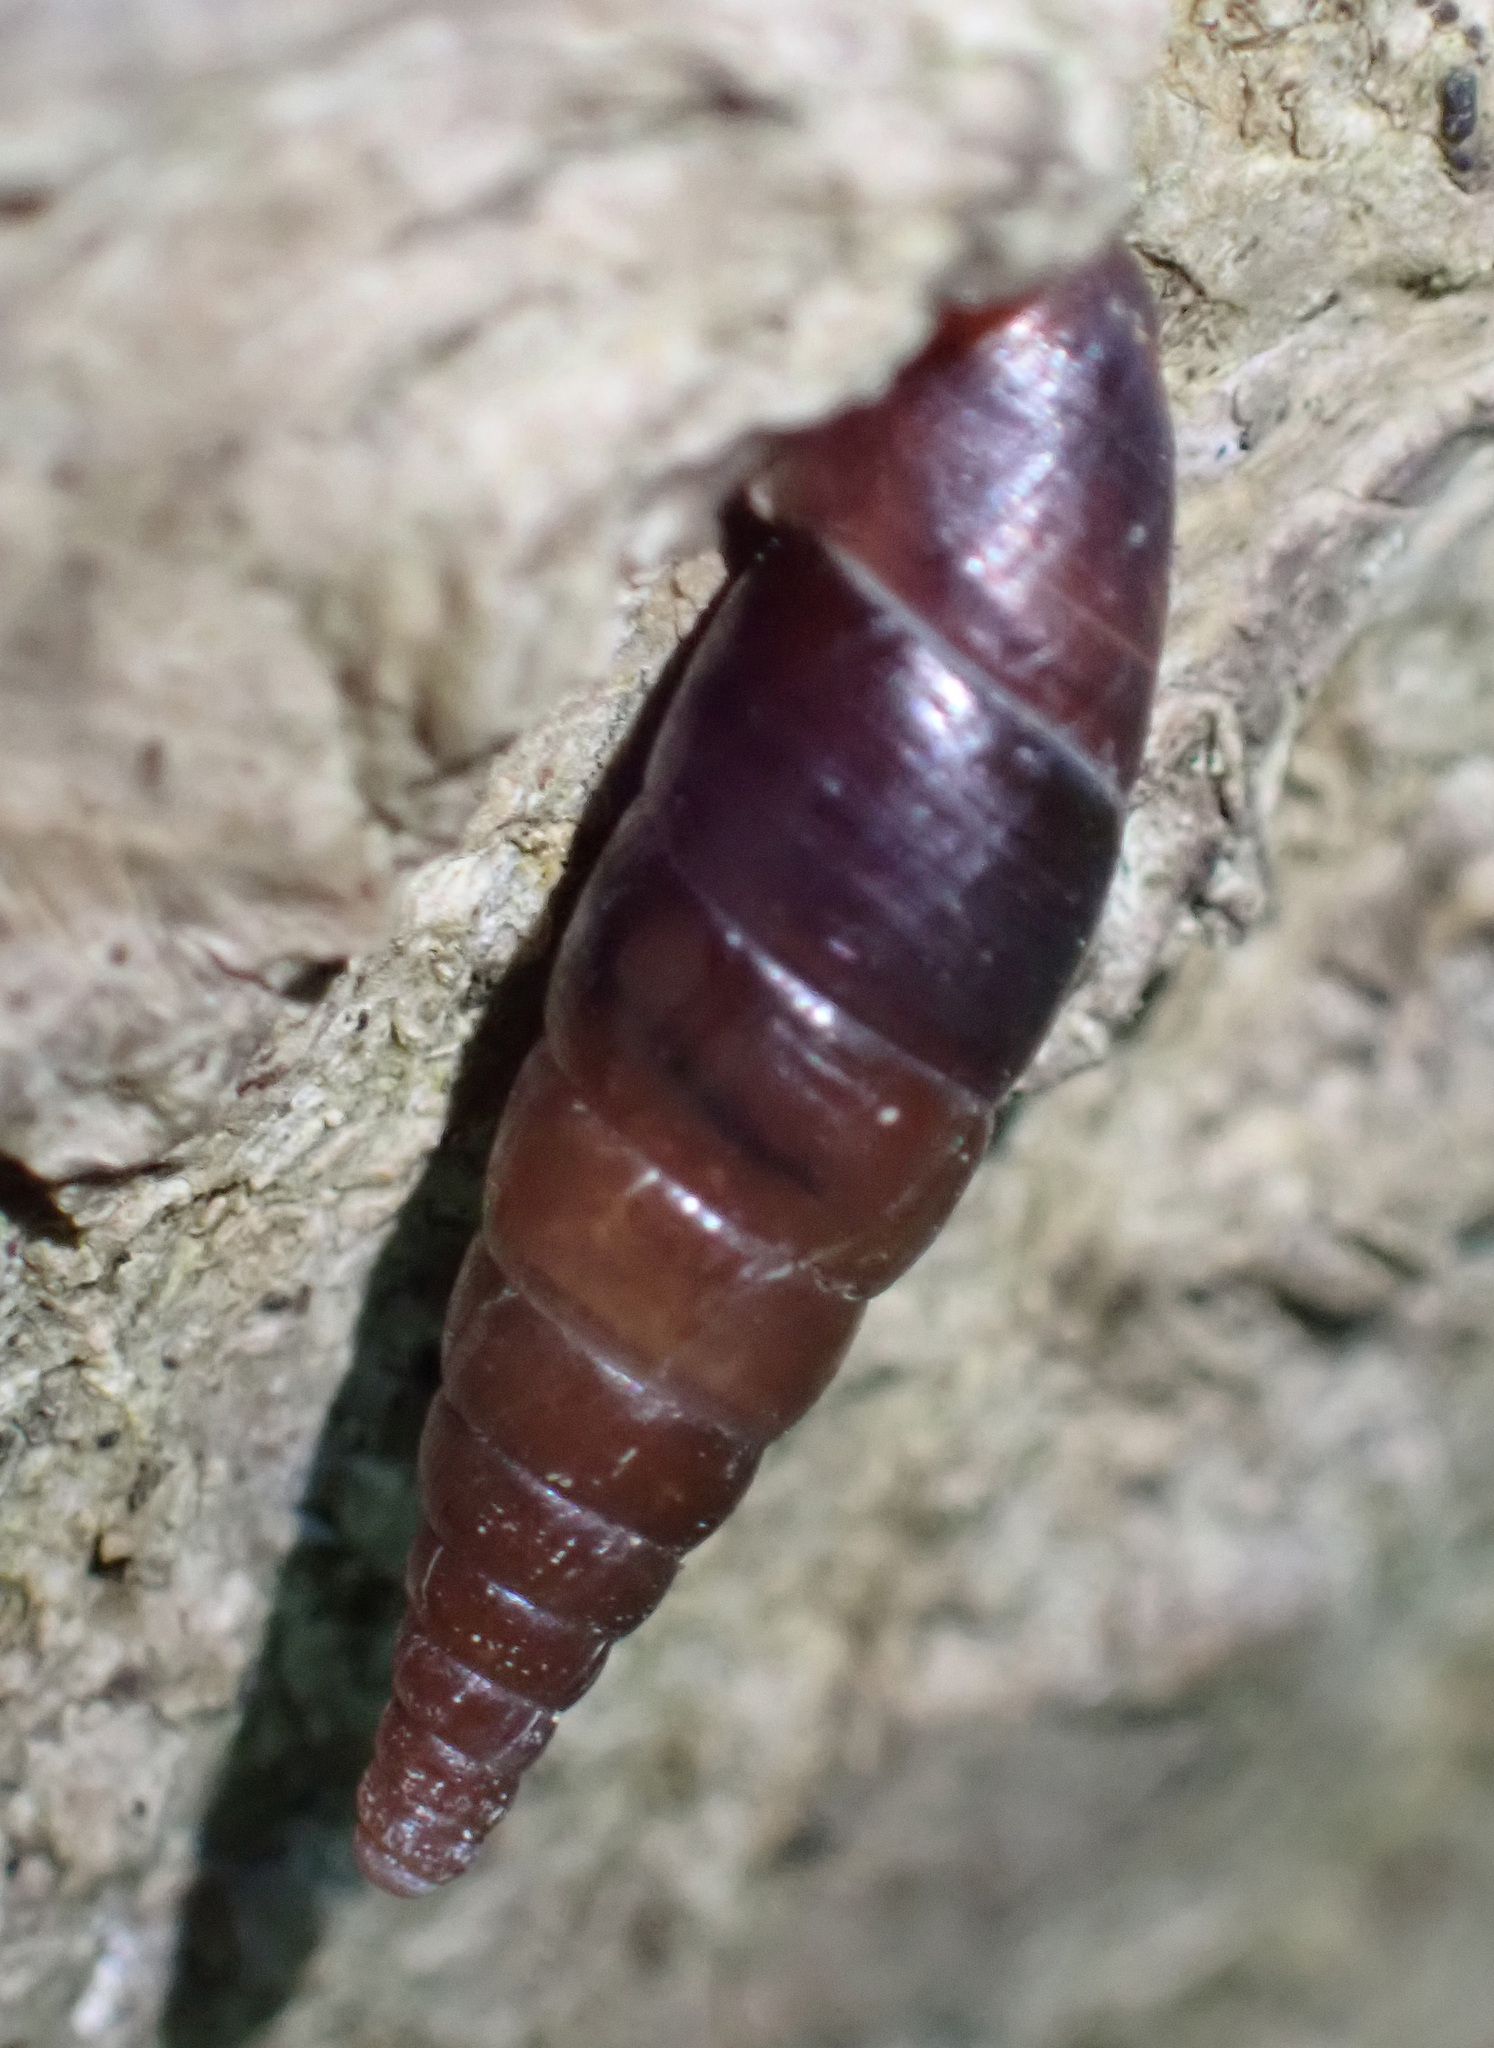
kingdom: Animalia
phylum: Mollusca
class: Gastropoda
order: Stylommatophora
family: Clausiliidae
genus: Cochlodina
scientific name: Cochlodina laminata
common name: Plaited door snail
